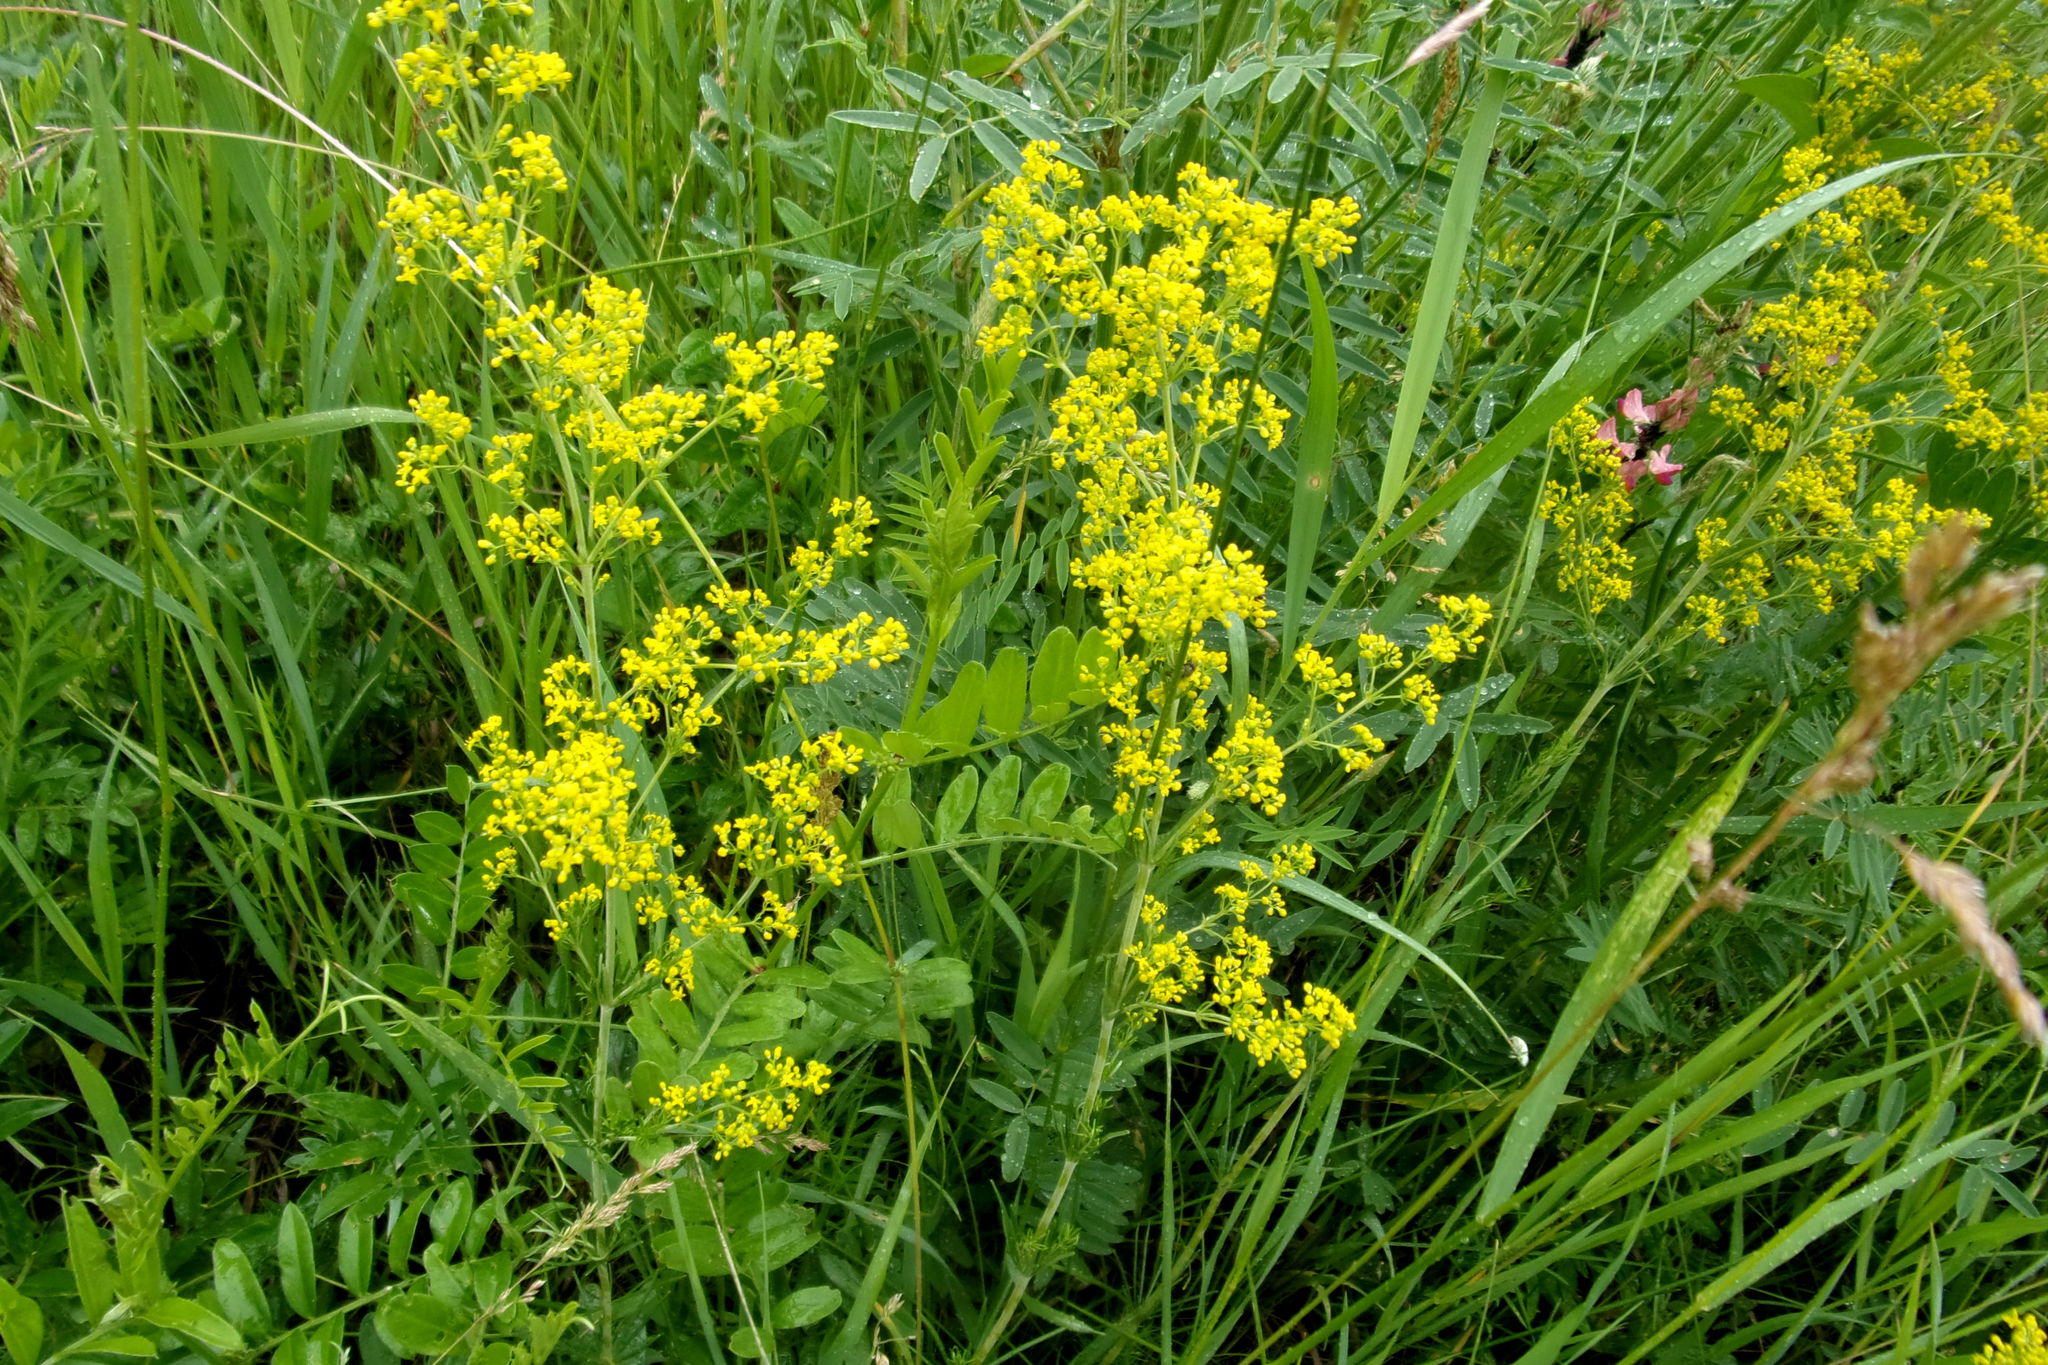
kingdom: Plantae
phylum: Tracheophyta
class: Magnoliopsida
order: Gentianales
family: Rubiaceae
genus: Galium
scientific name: Galium verum
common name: Lady's bedstraw
